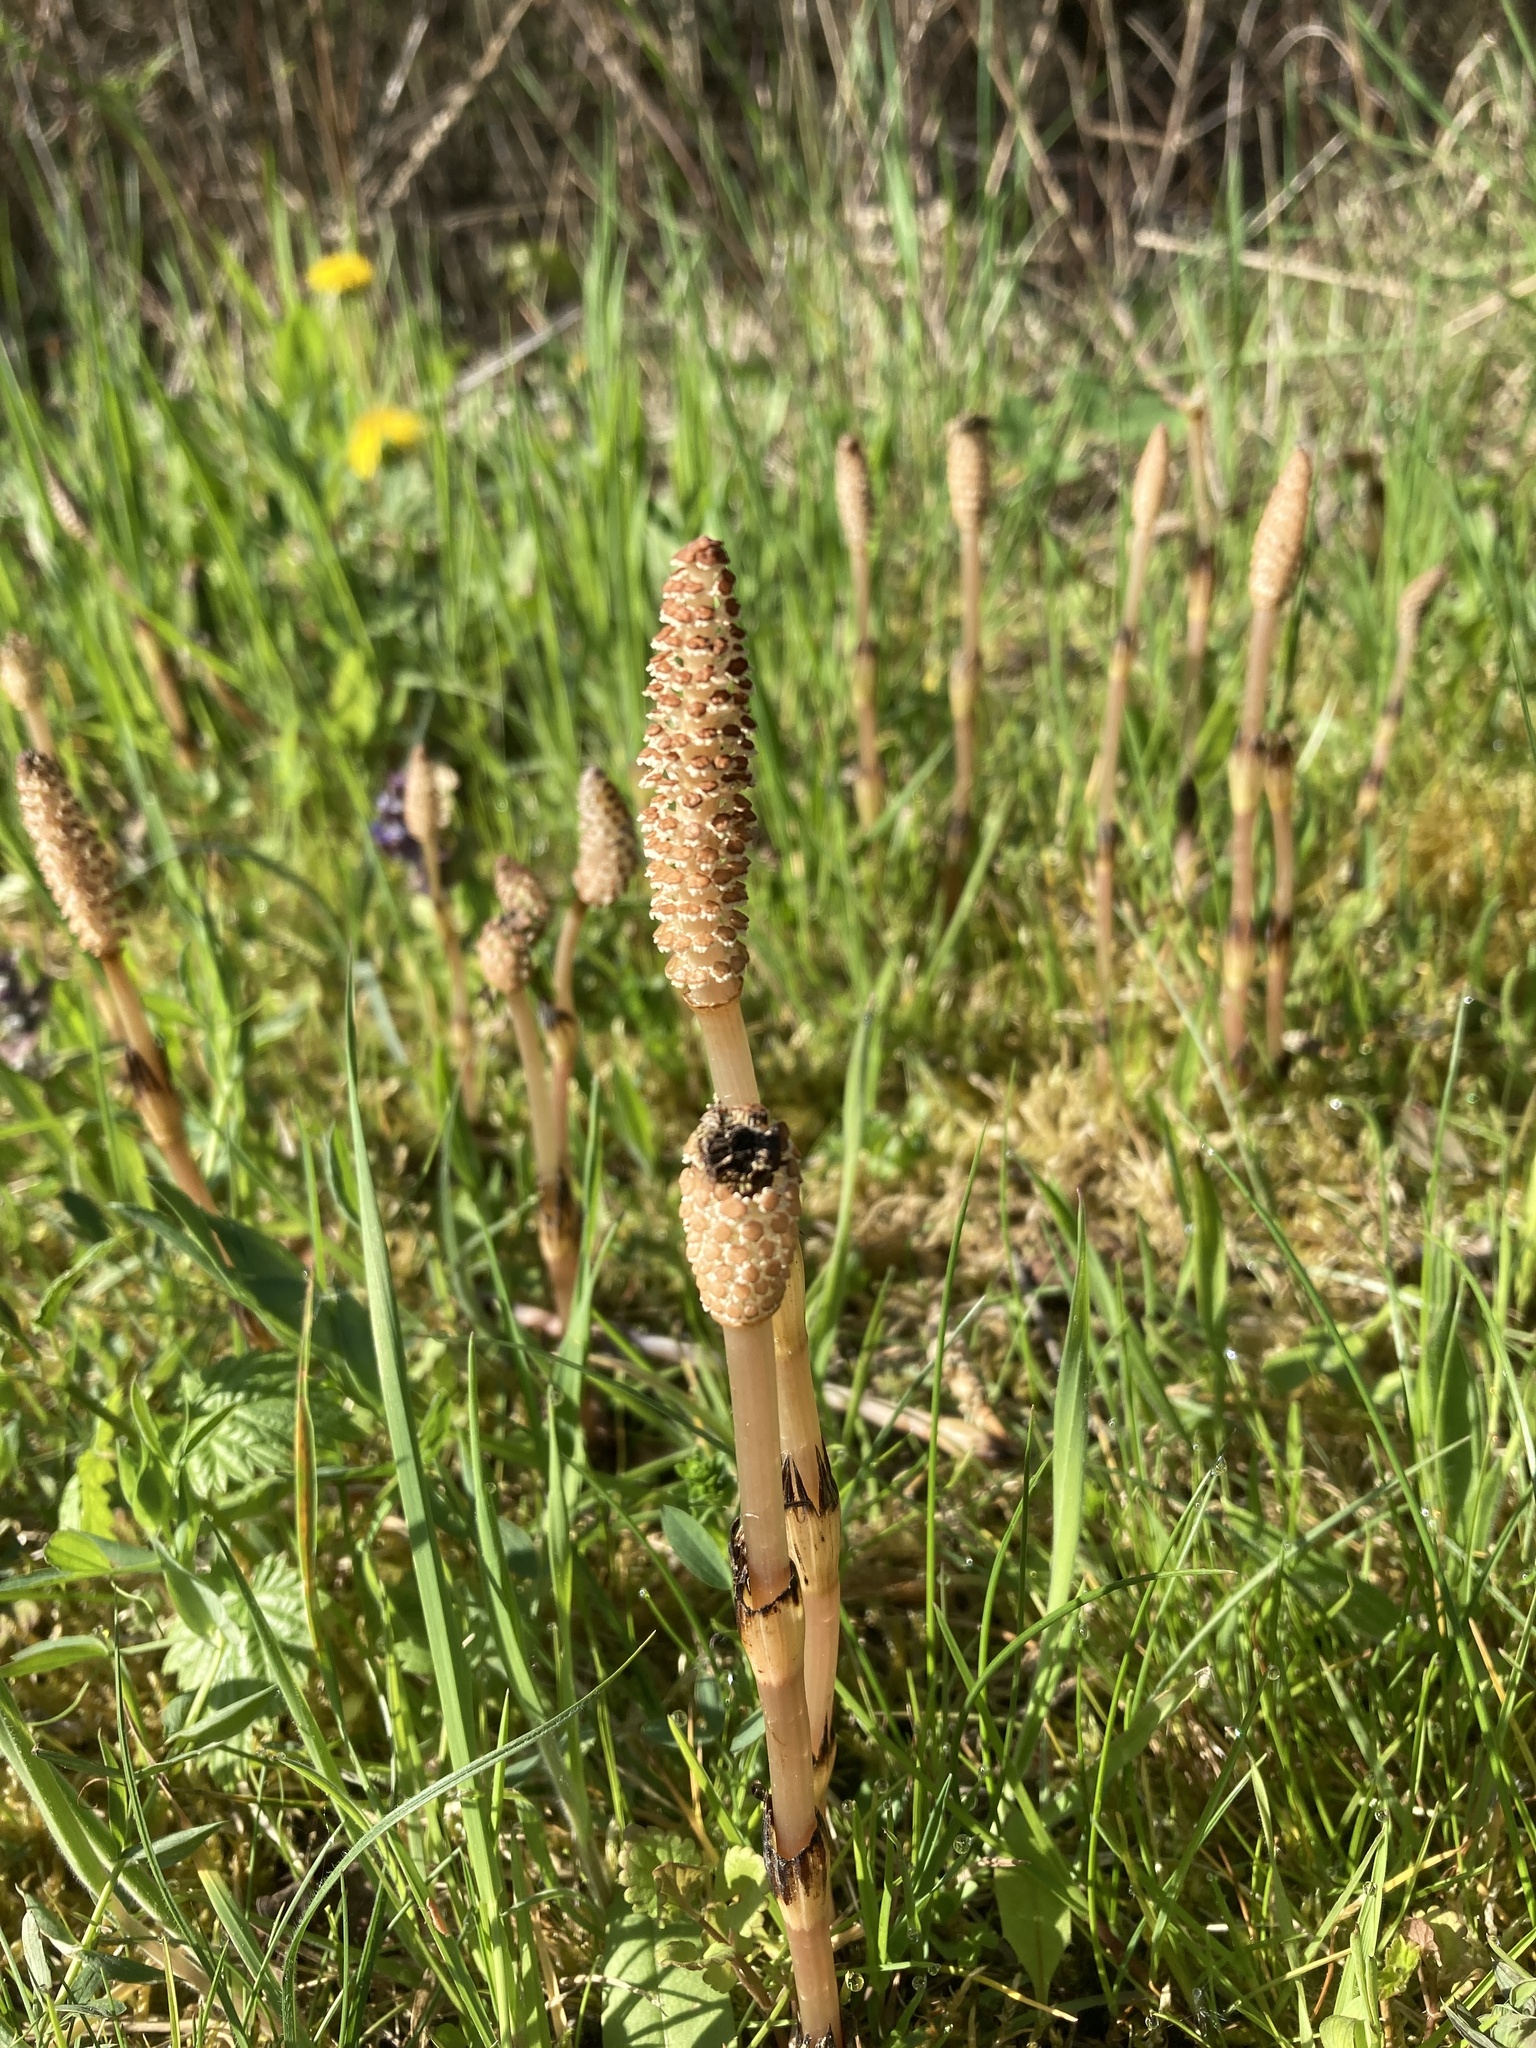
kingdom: Plantae
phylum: Tracheophyta
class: Polypodiopsida
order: Equisetales
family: Equisetaceae
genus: Equisetum
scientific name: Equisetum arvense
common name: Field horsetail
